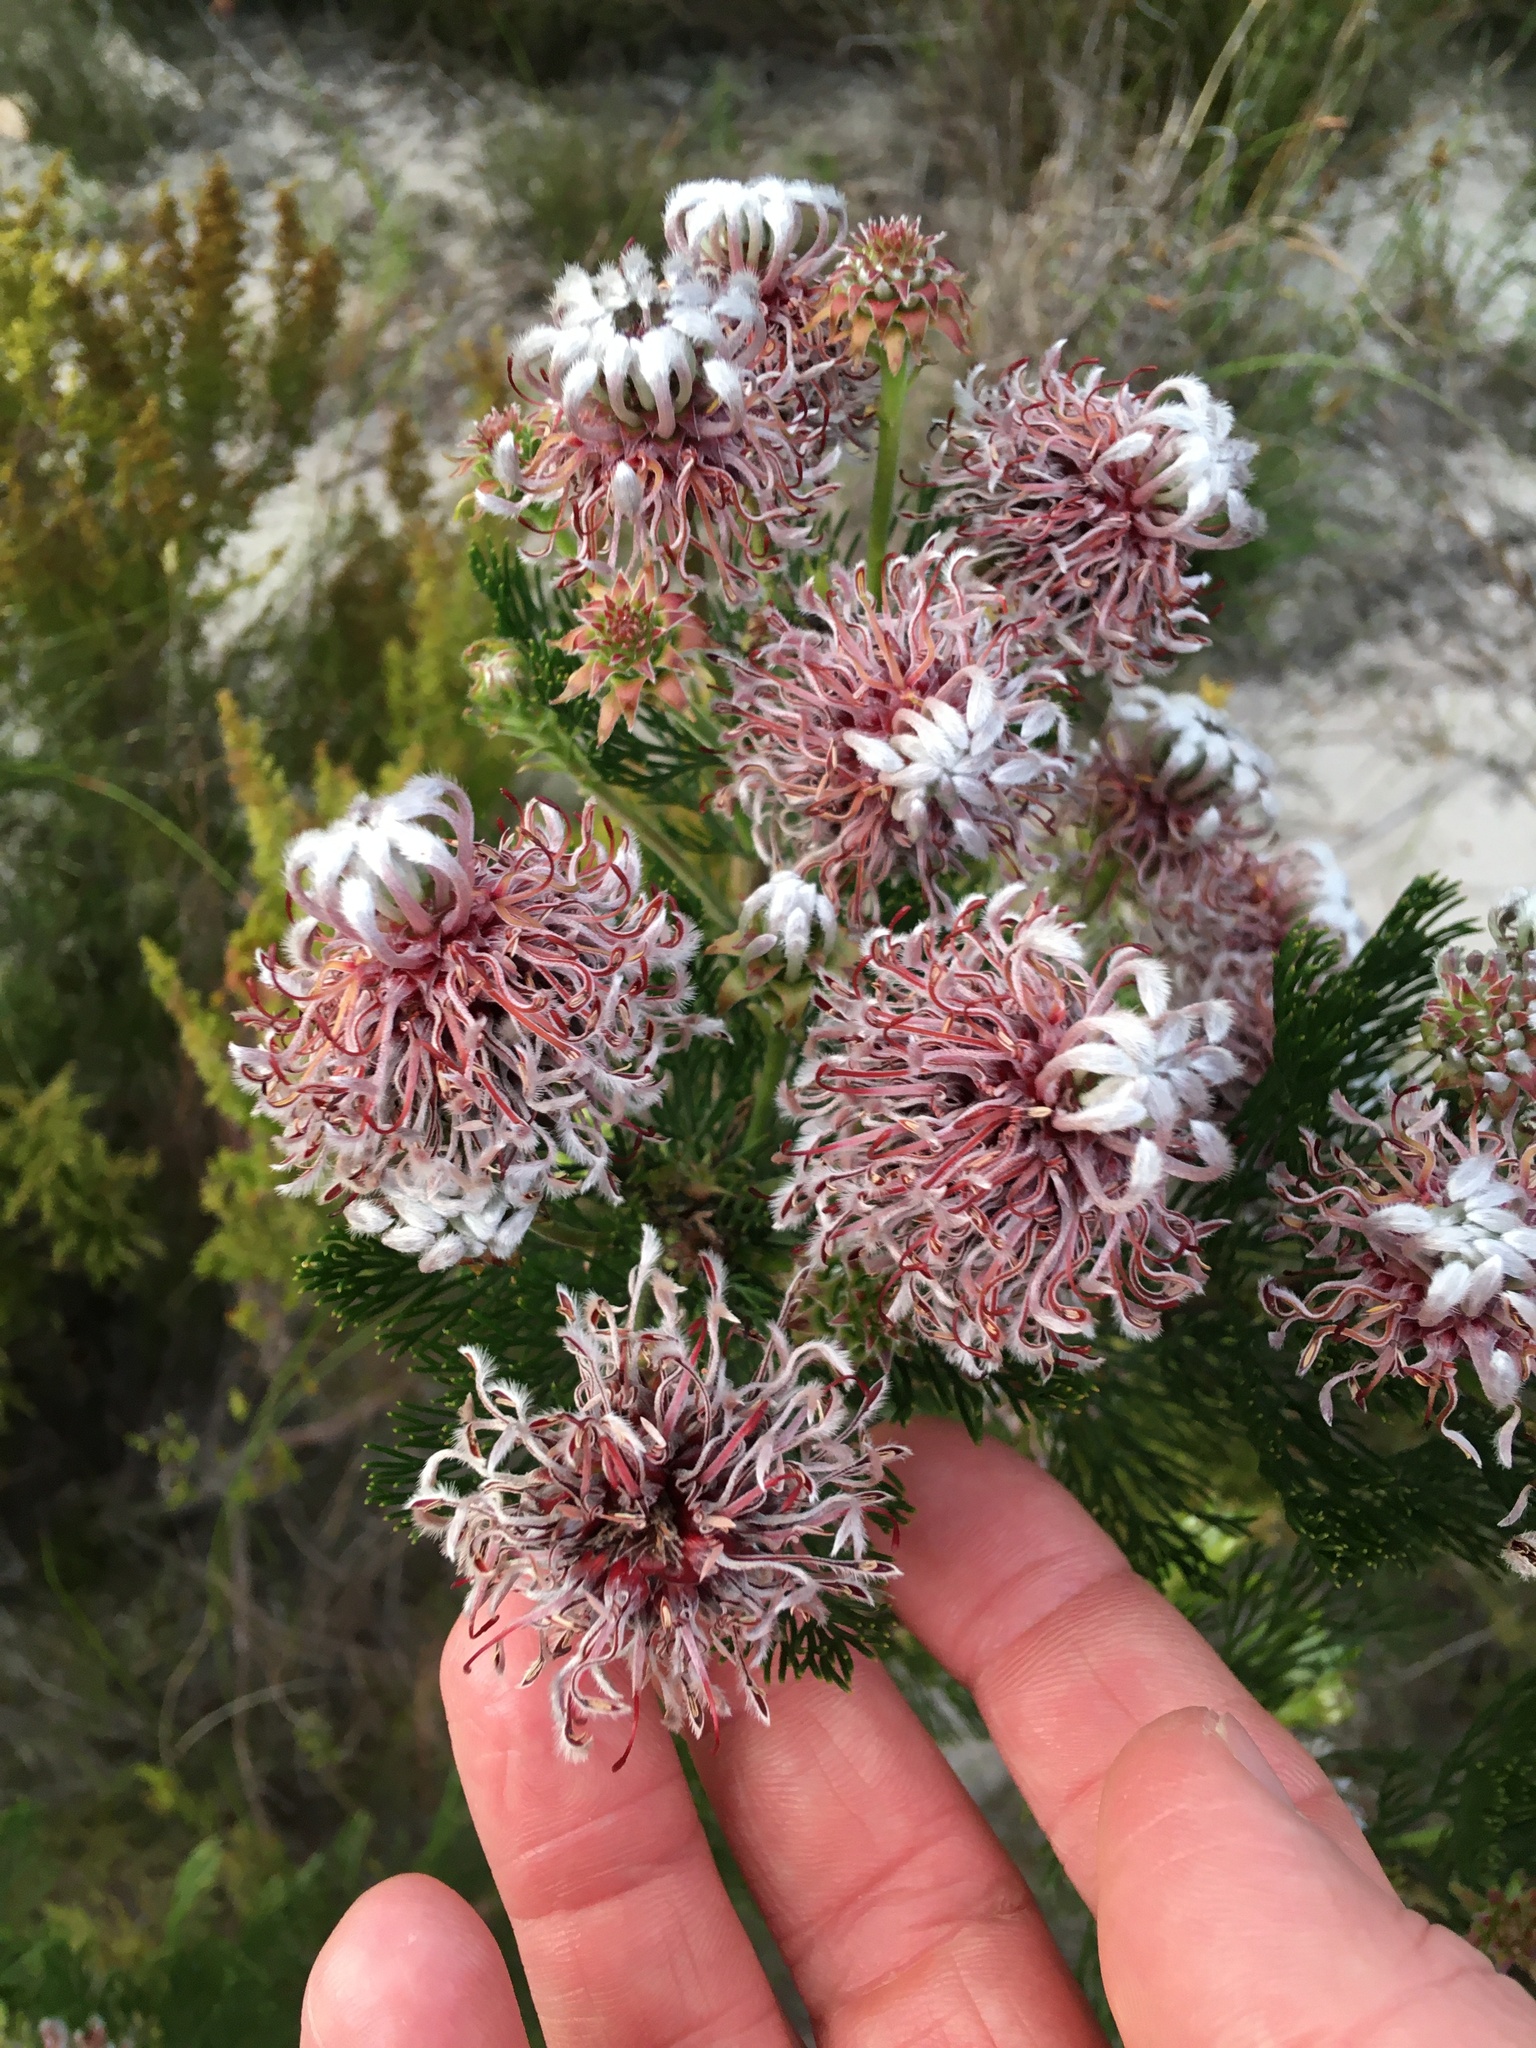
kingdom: Plantae
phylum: Tracheophyta
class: Magnoliopsida
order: Proteales
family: Proteaceae
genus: Serruria
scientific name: Serruria acrocarpa
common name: Common rootstock spiderhead
